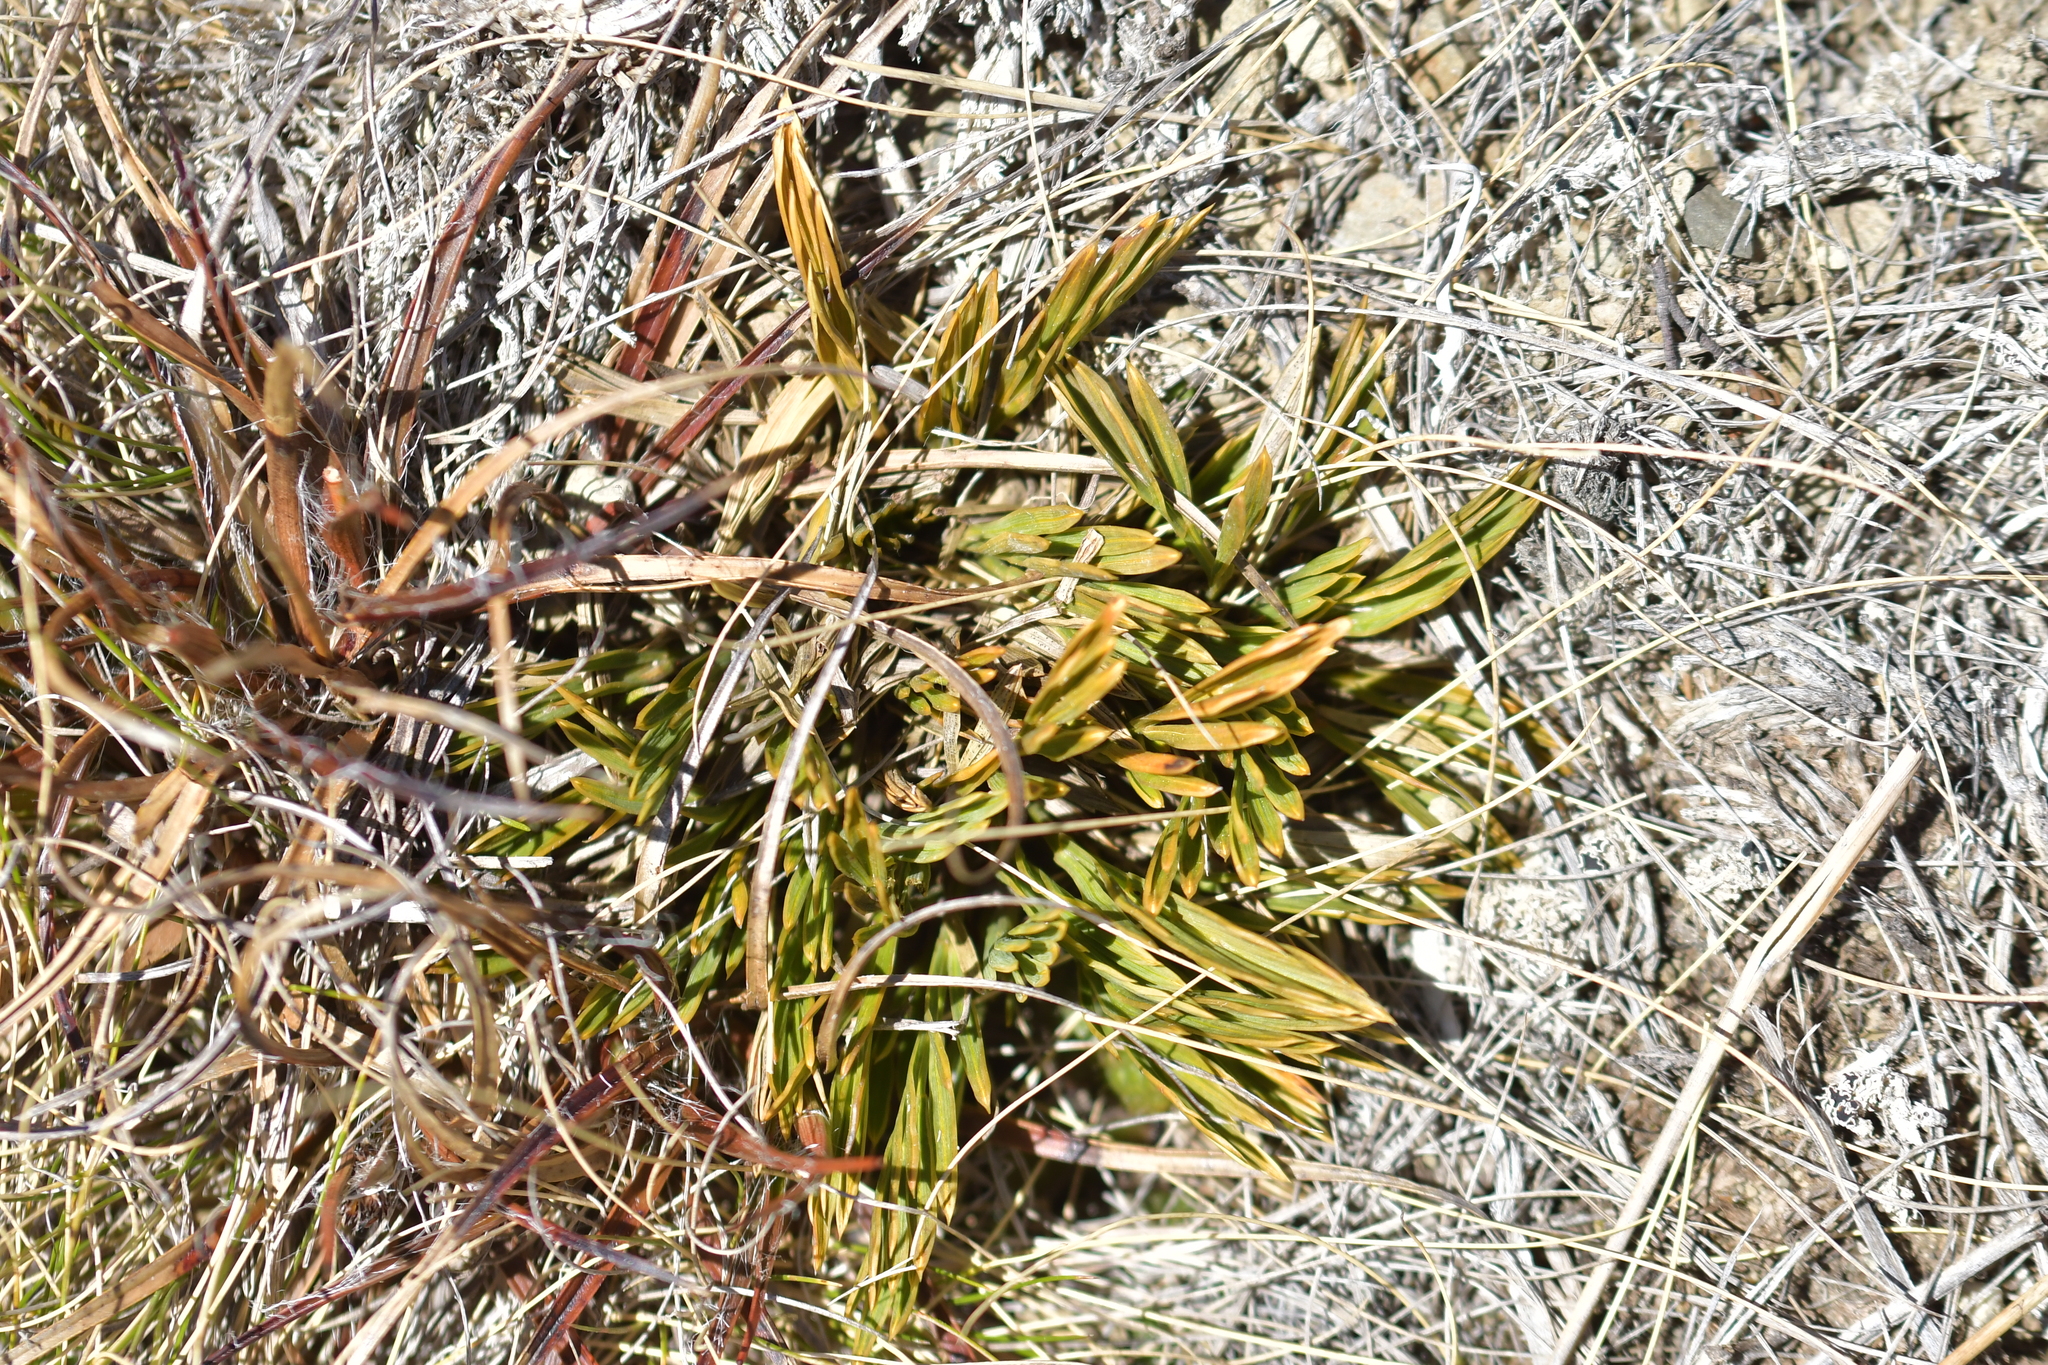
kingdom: Plantae
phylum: Tracheophyta
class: Magnoliopsida
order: Apiales
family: Apiaceae
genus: Aciphylla
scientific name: Aciphylla monroi
